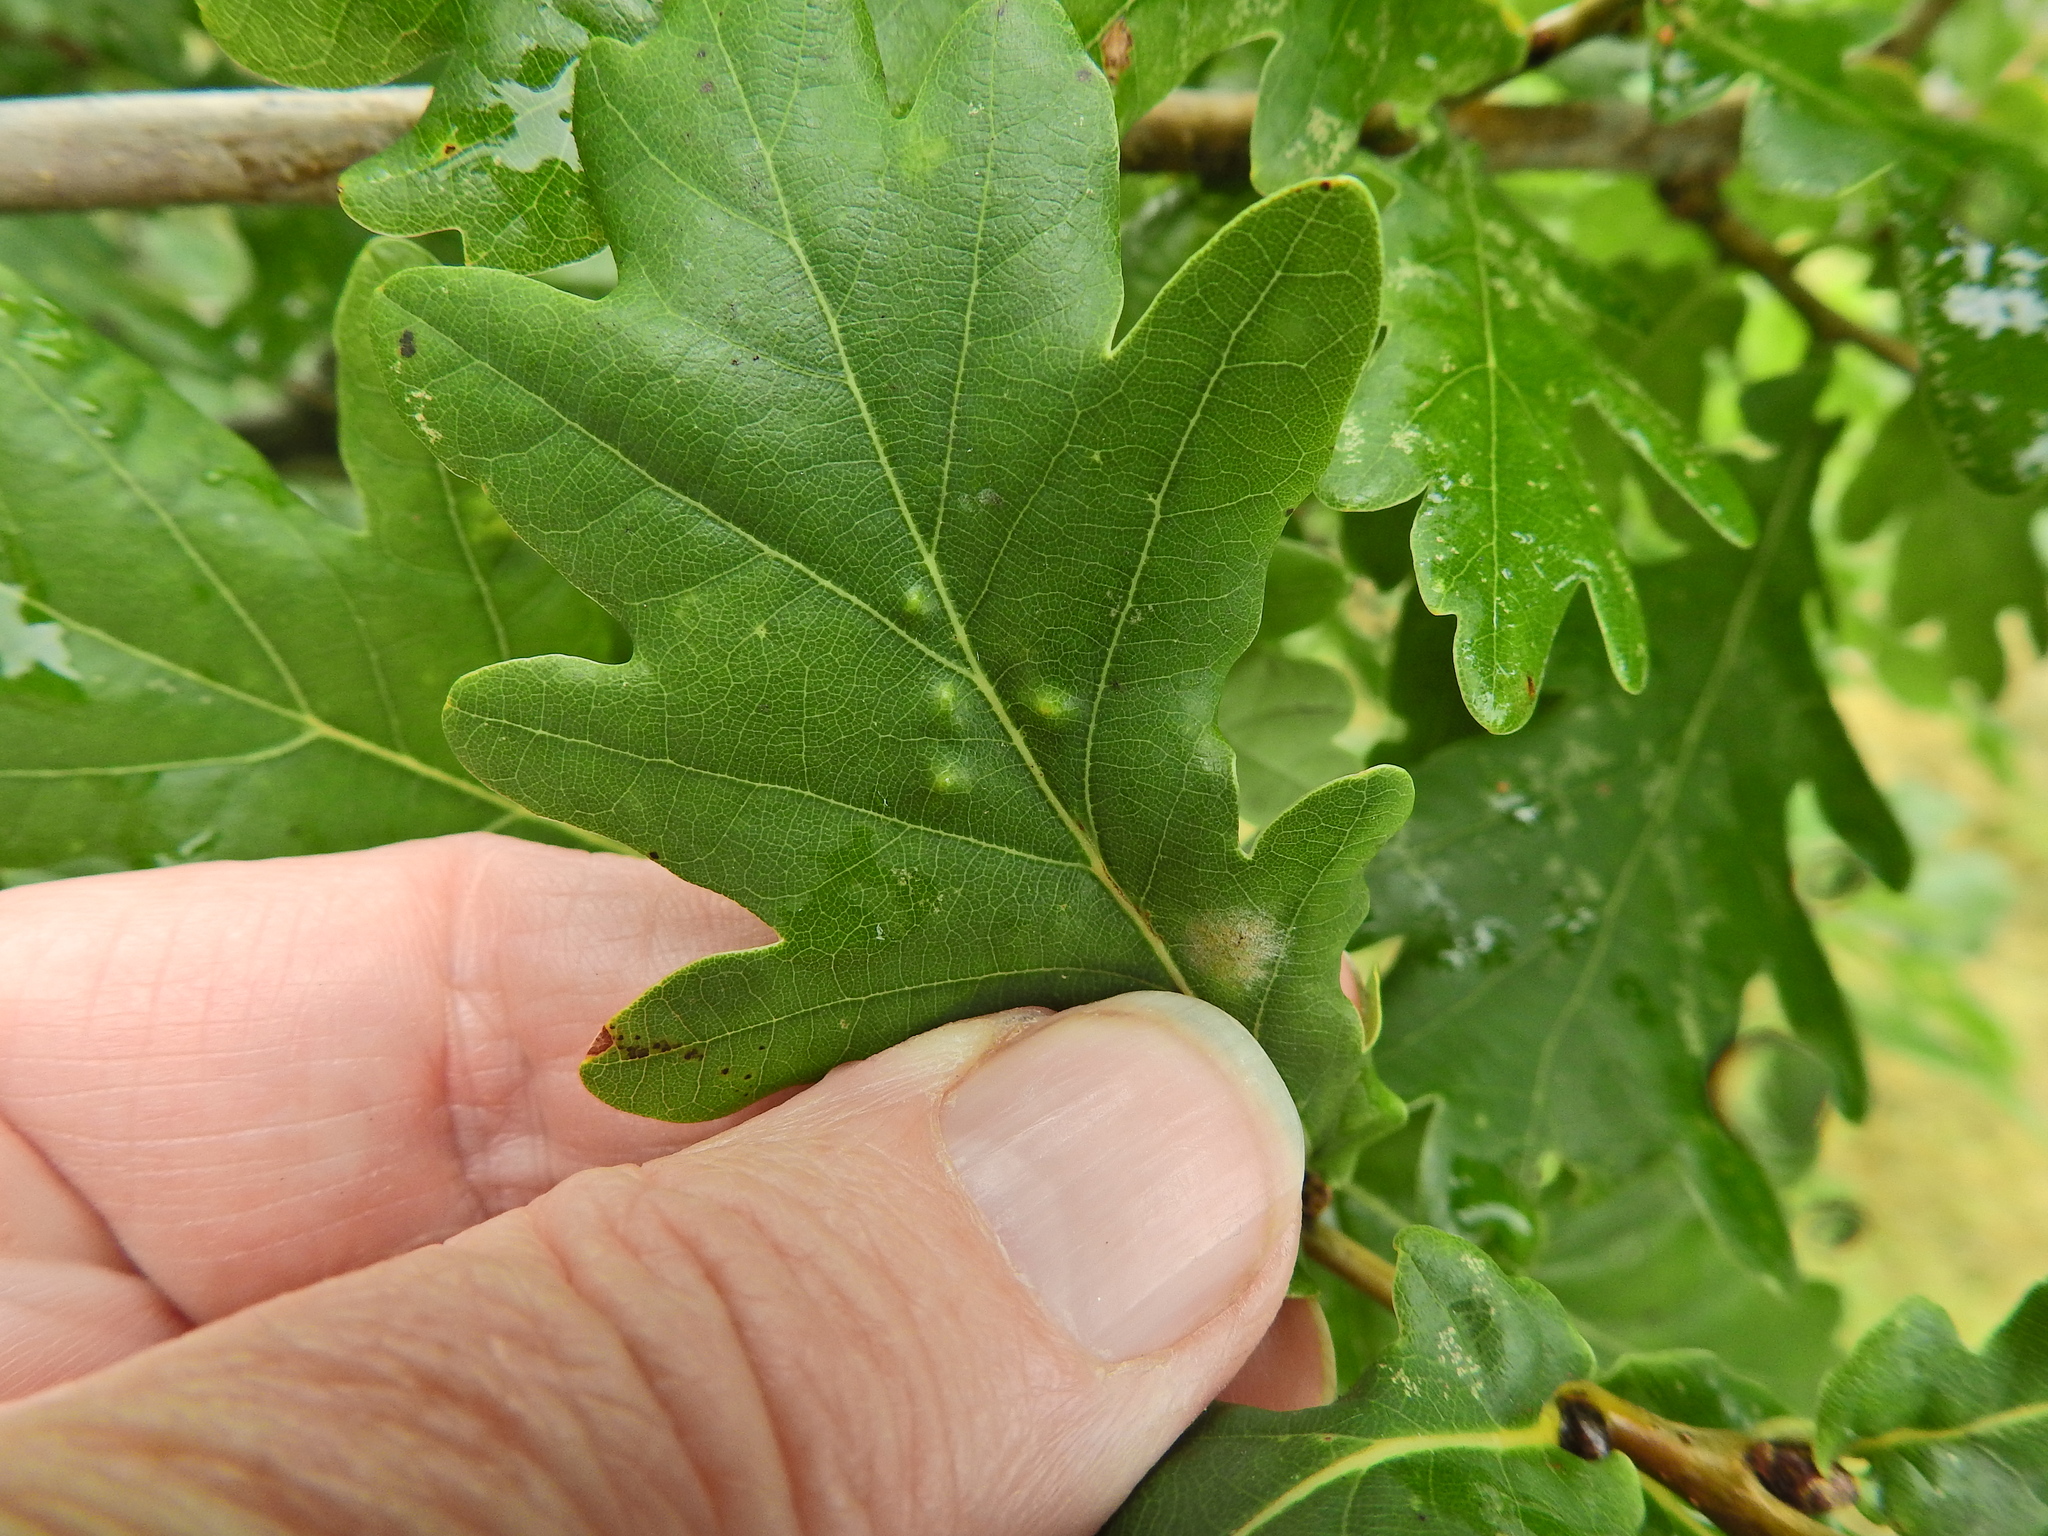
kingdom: Animalia
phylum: Arthropoda
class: Insecta
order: Hemiptera
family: Triozidae
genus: Trioza
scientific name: Trioza remota
